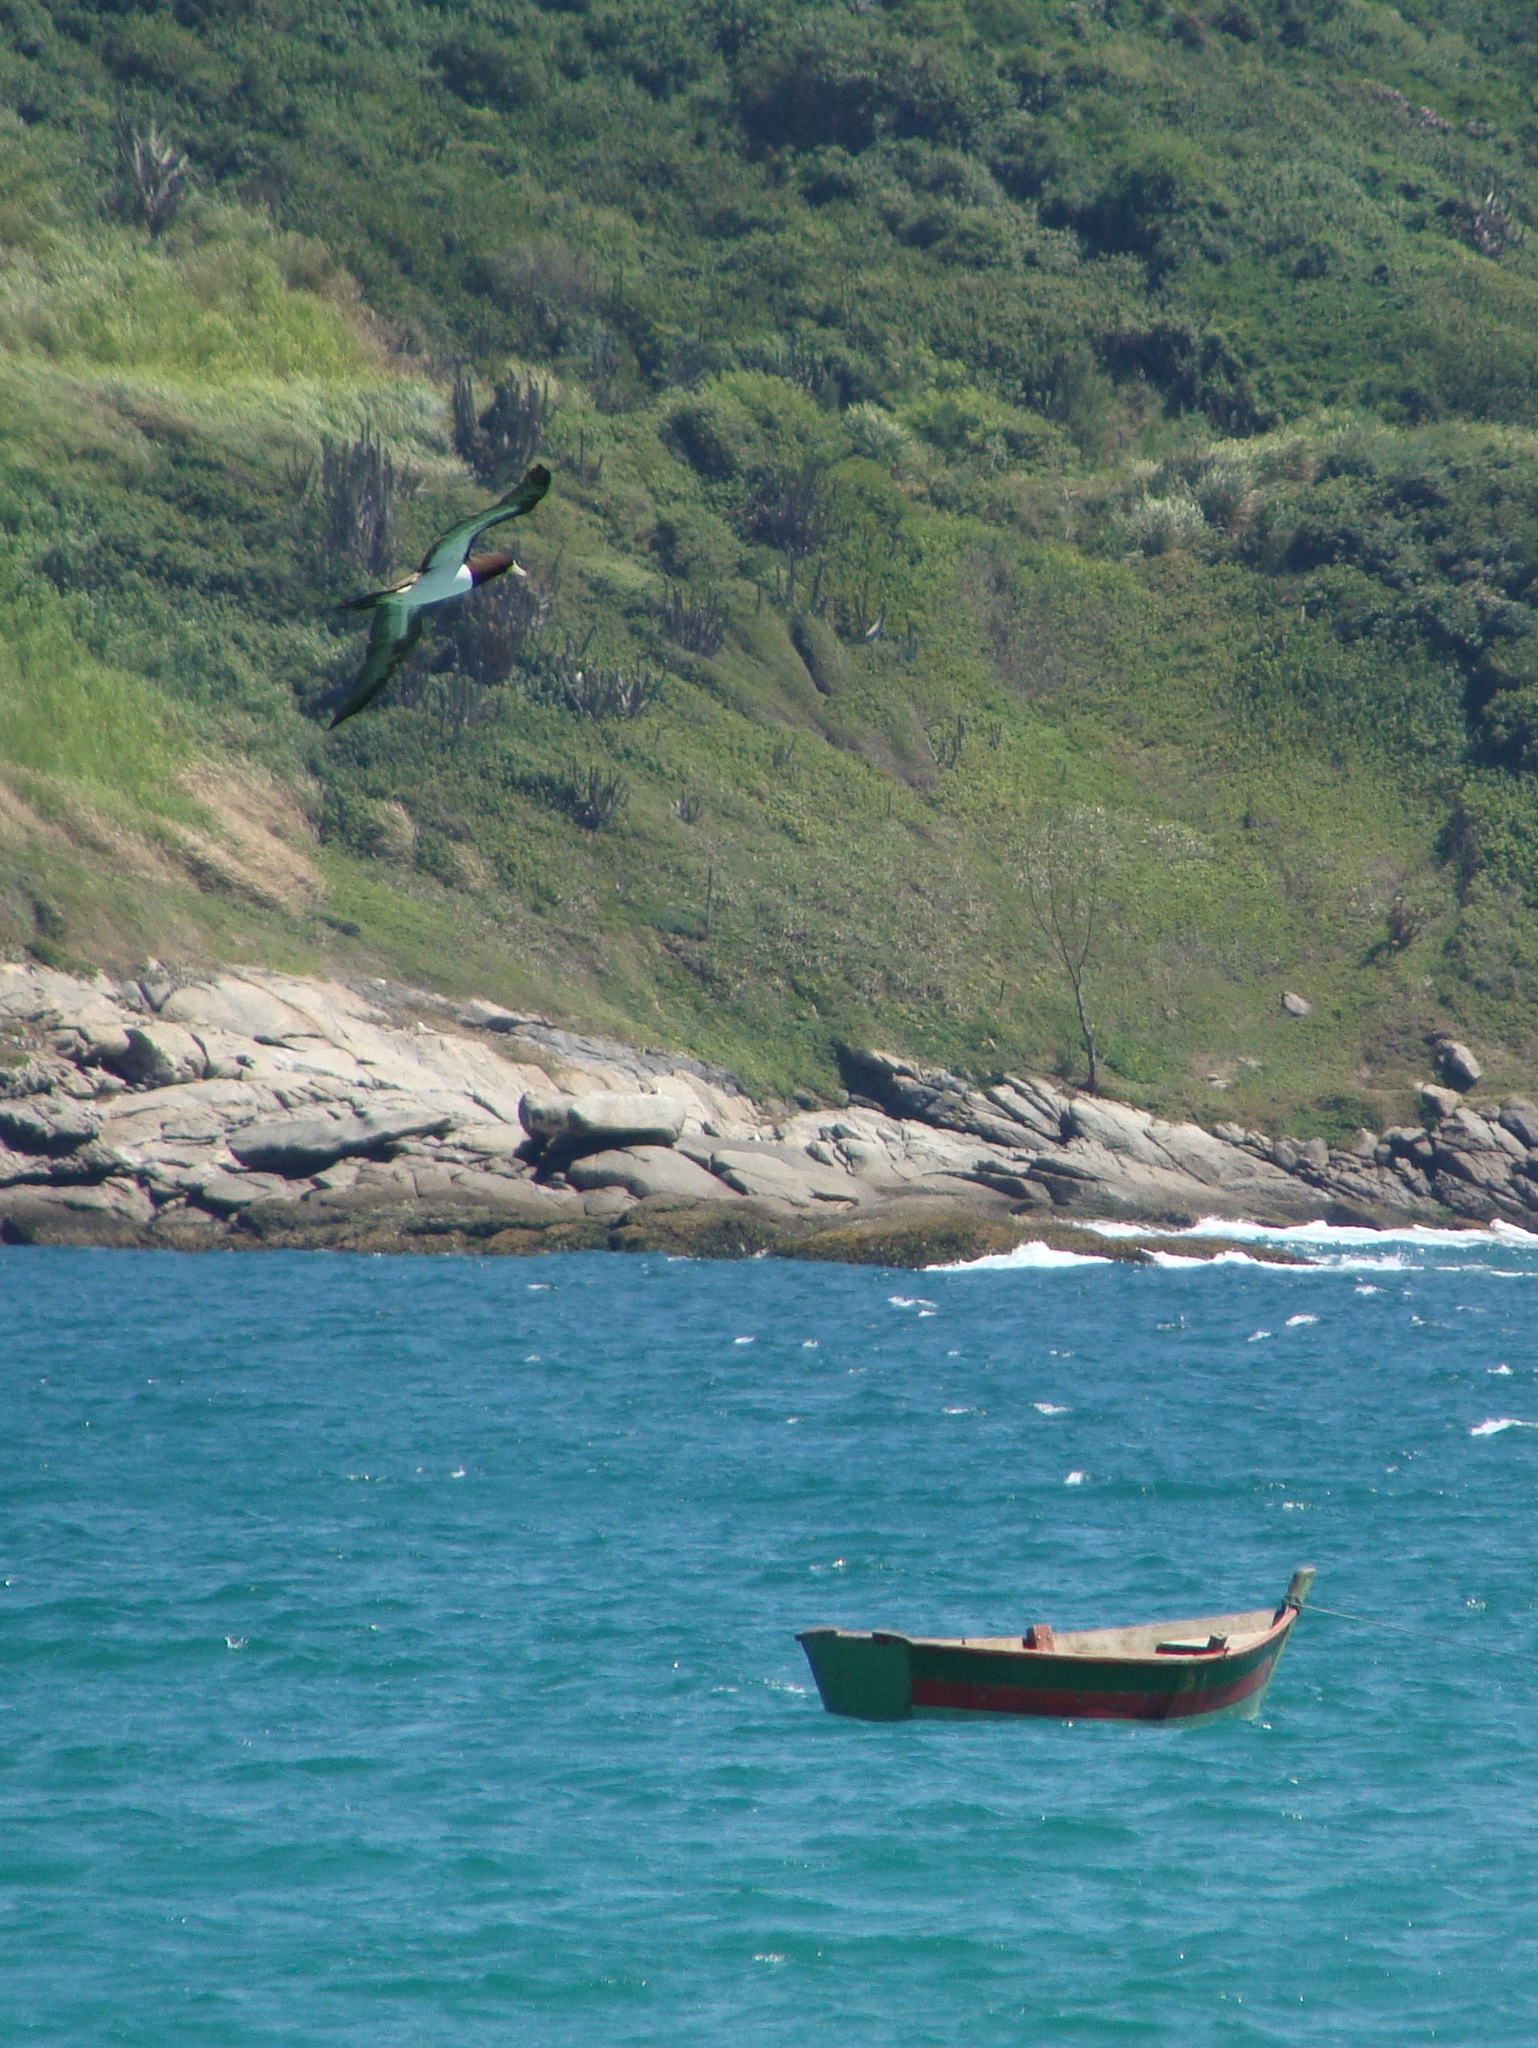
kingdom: Animalia
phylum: Chordata
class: Aves
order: Suliformes
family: Sulidae
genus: Sula
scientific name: Sula leucogaster
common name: Brown booby
